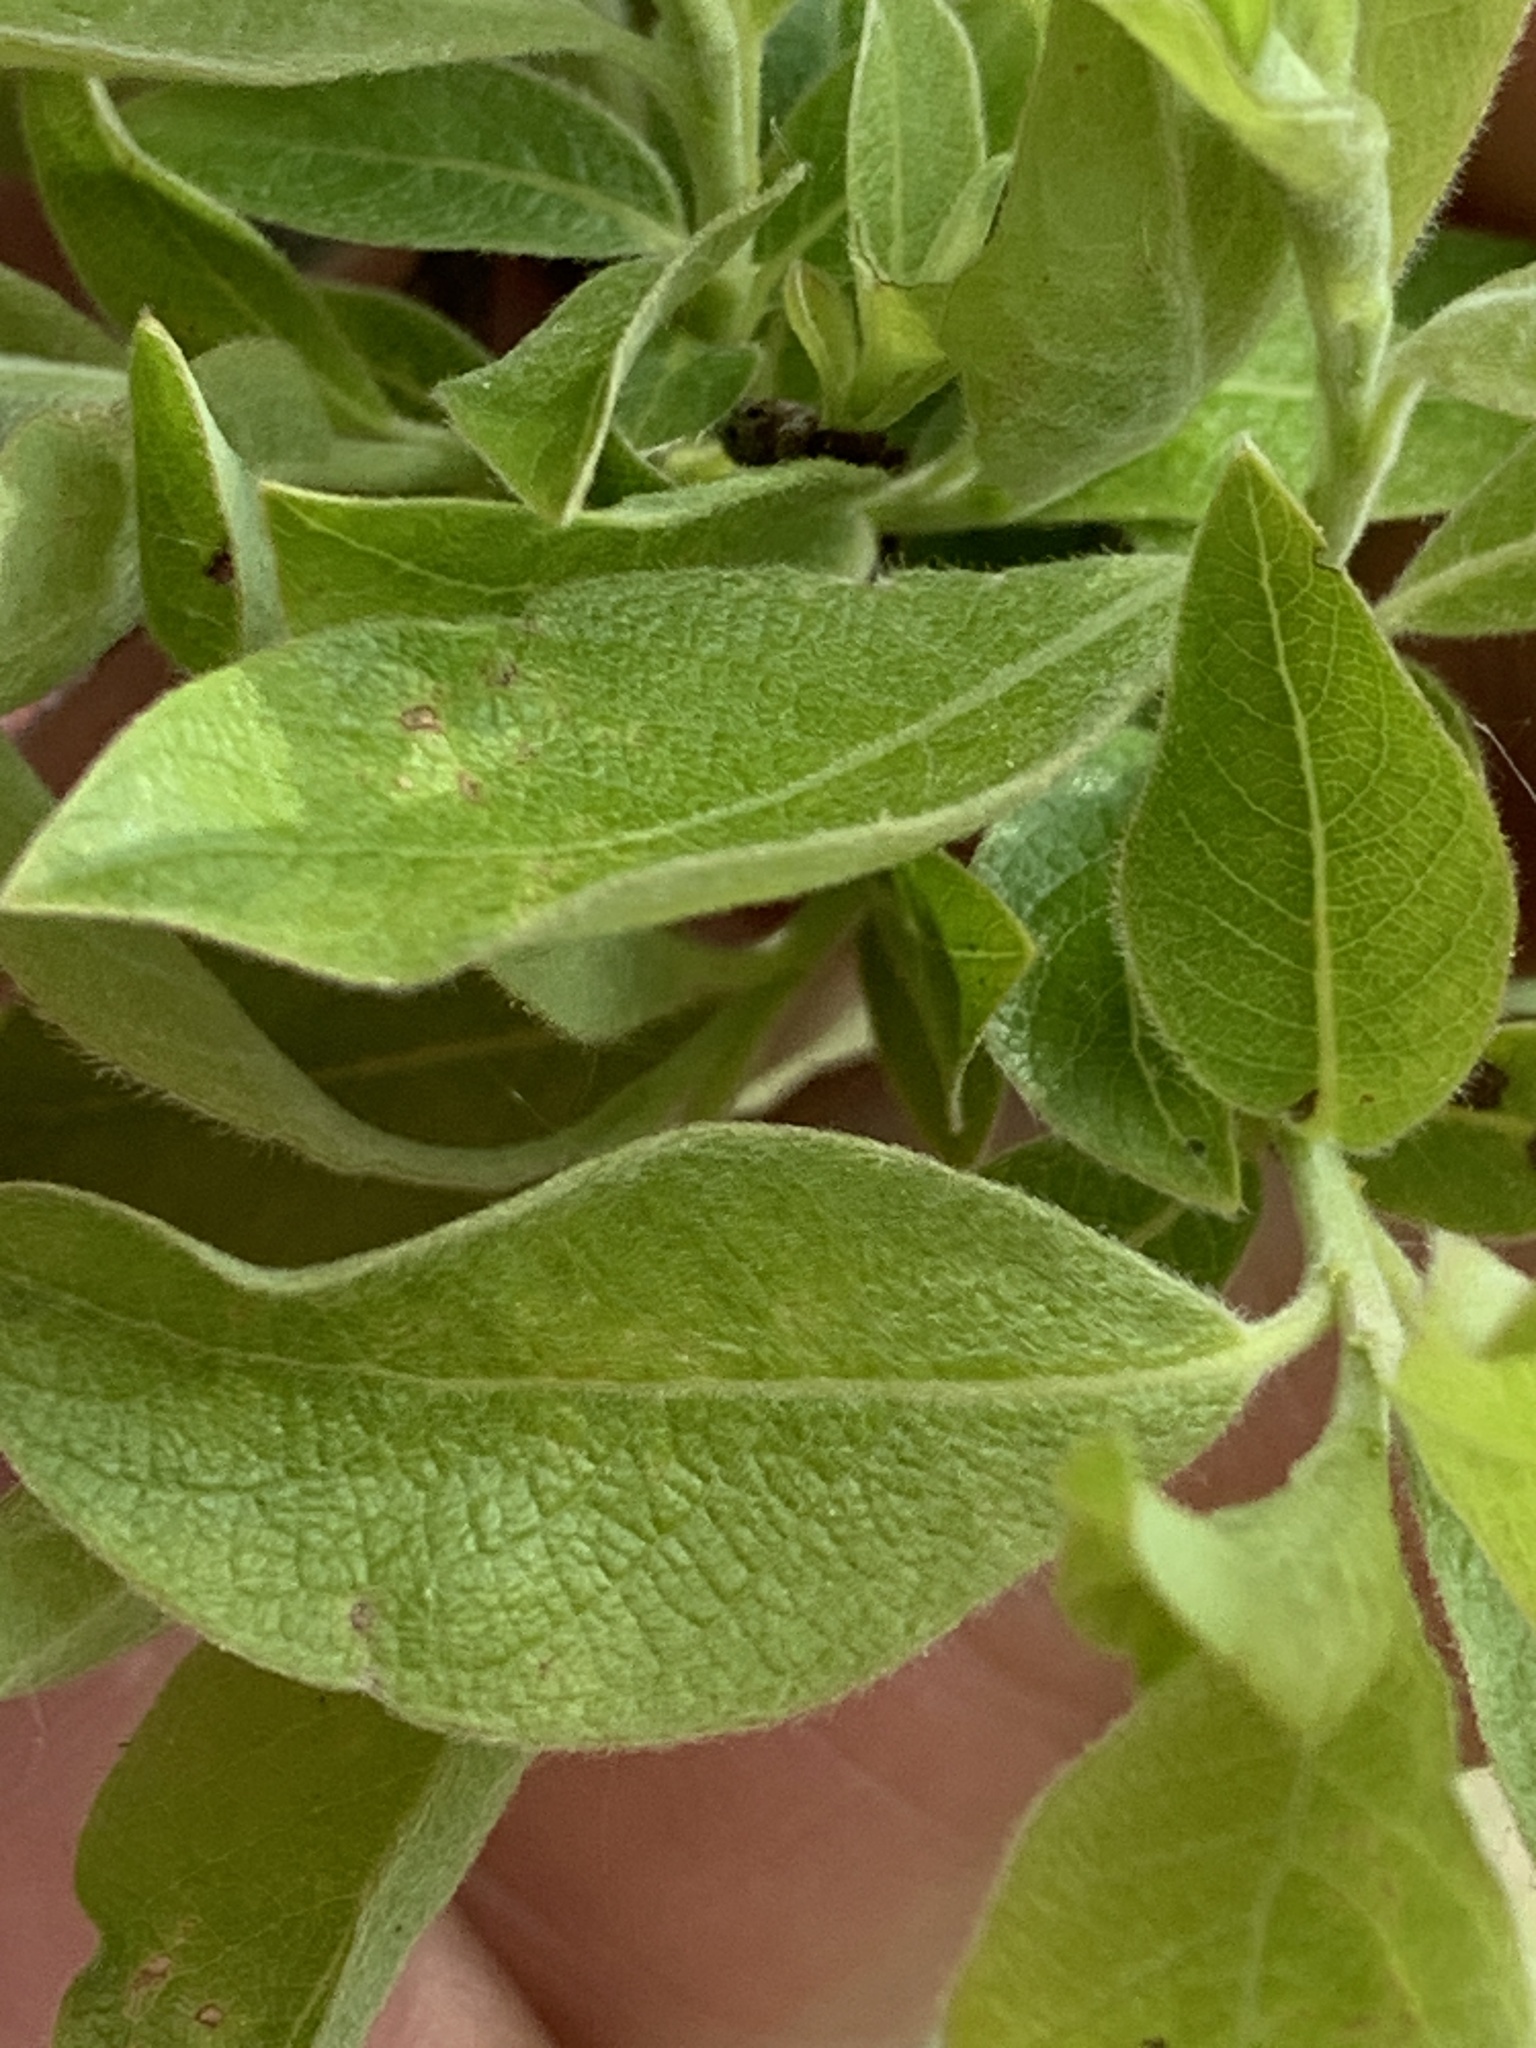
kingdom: Plantae
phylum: Tracheophyta
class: Magnoliopsida
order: Malpighiales
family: Salicaceae
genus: Salix
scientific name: Salix bebbiana
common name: Bebb's willow
